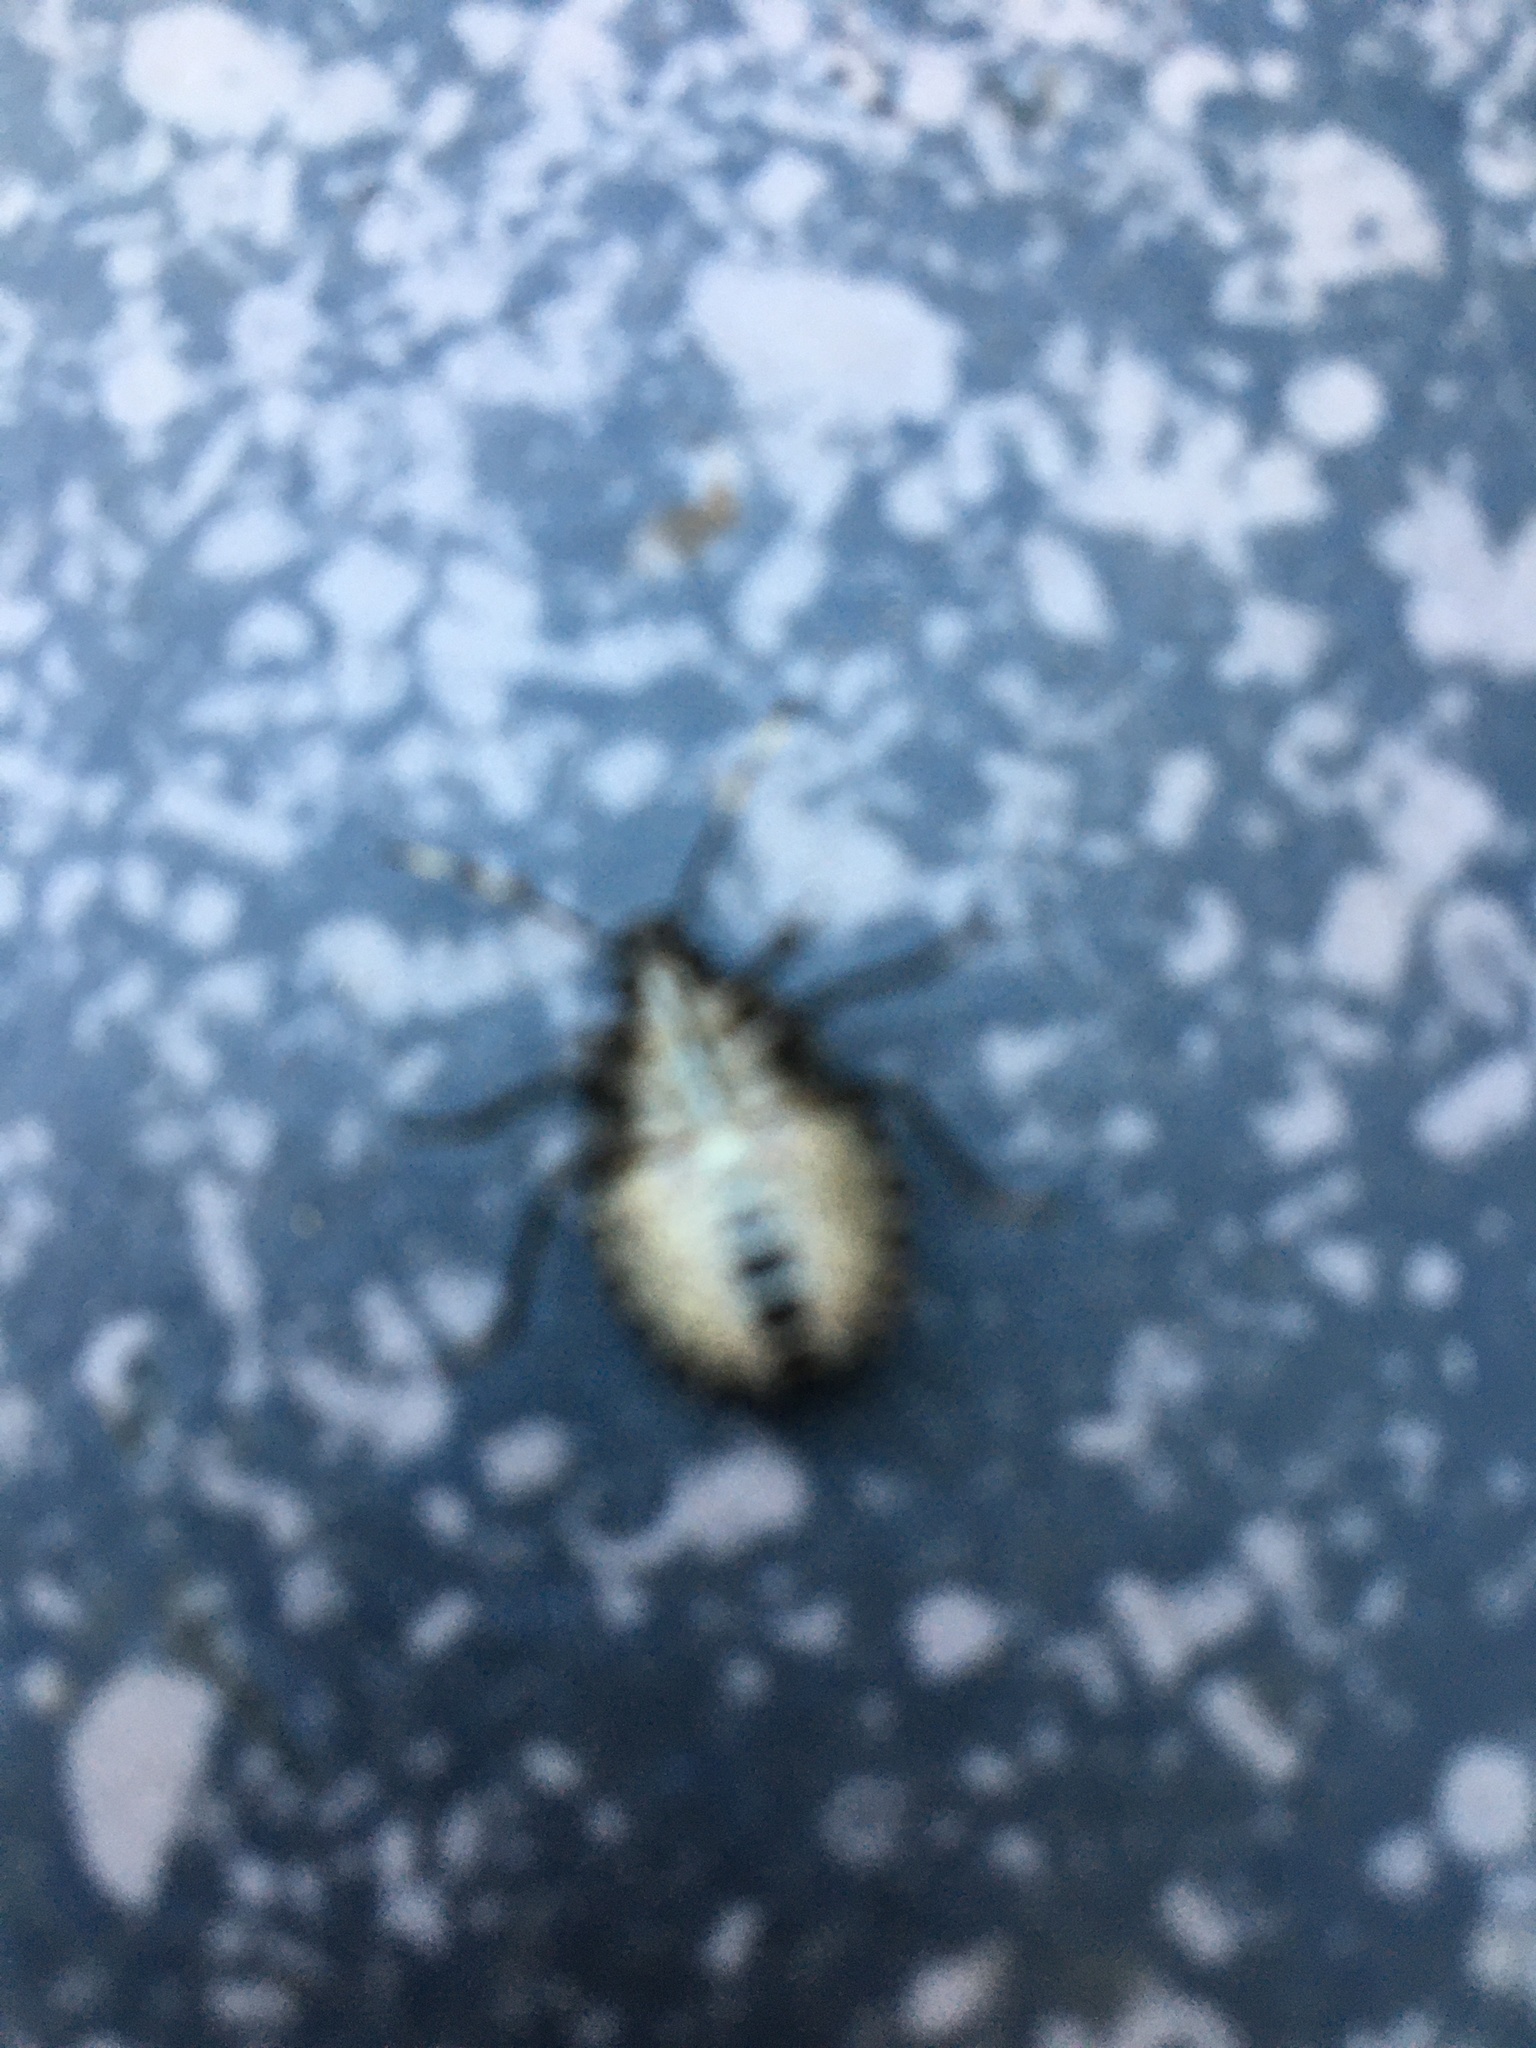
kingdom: Animalia
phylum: Arthropoda
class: Insecta
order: Hemiptera
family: Pentatomidae
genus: Rhaphigaster
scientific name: Rhaphigaster nebulosa
